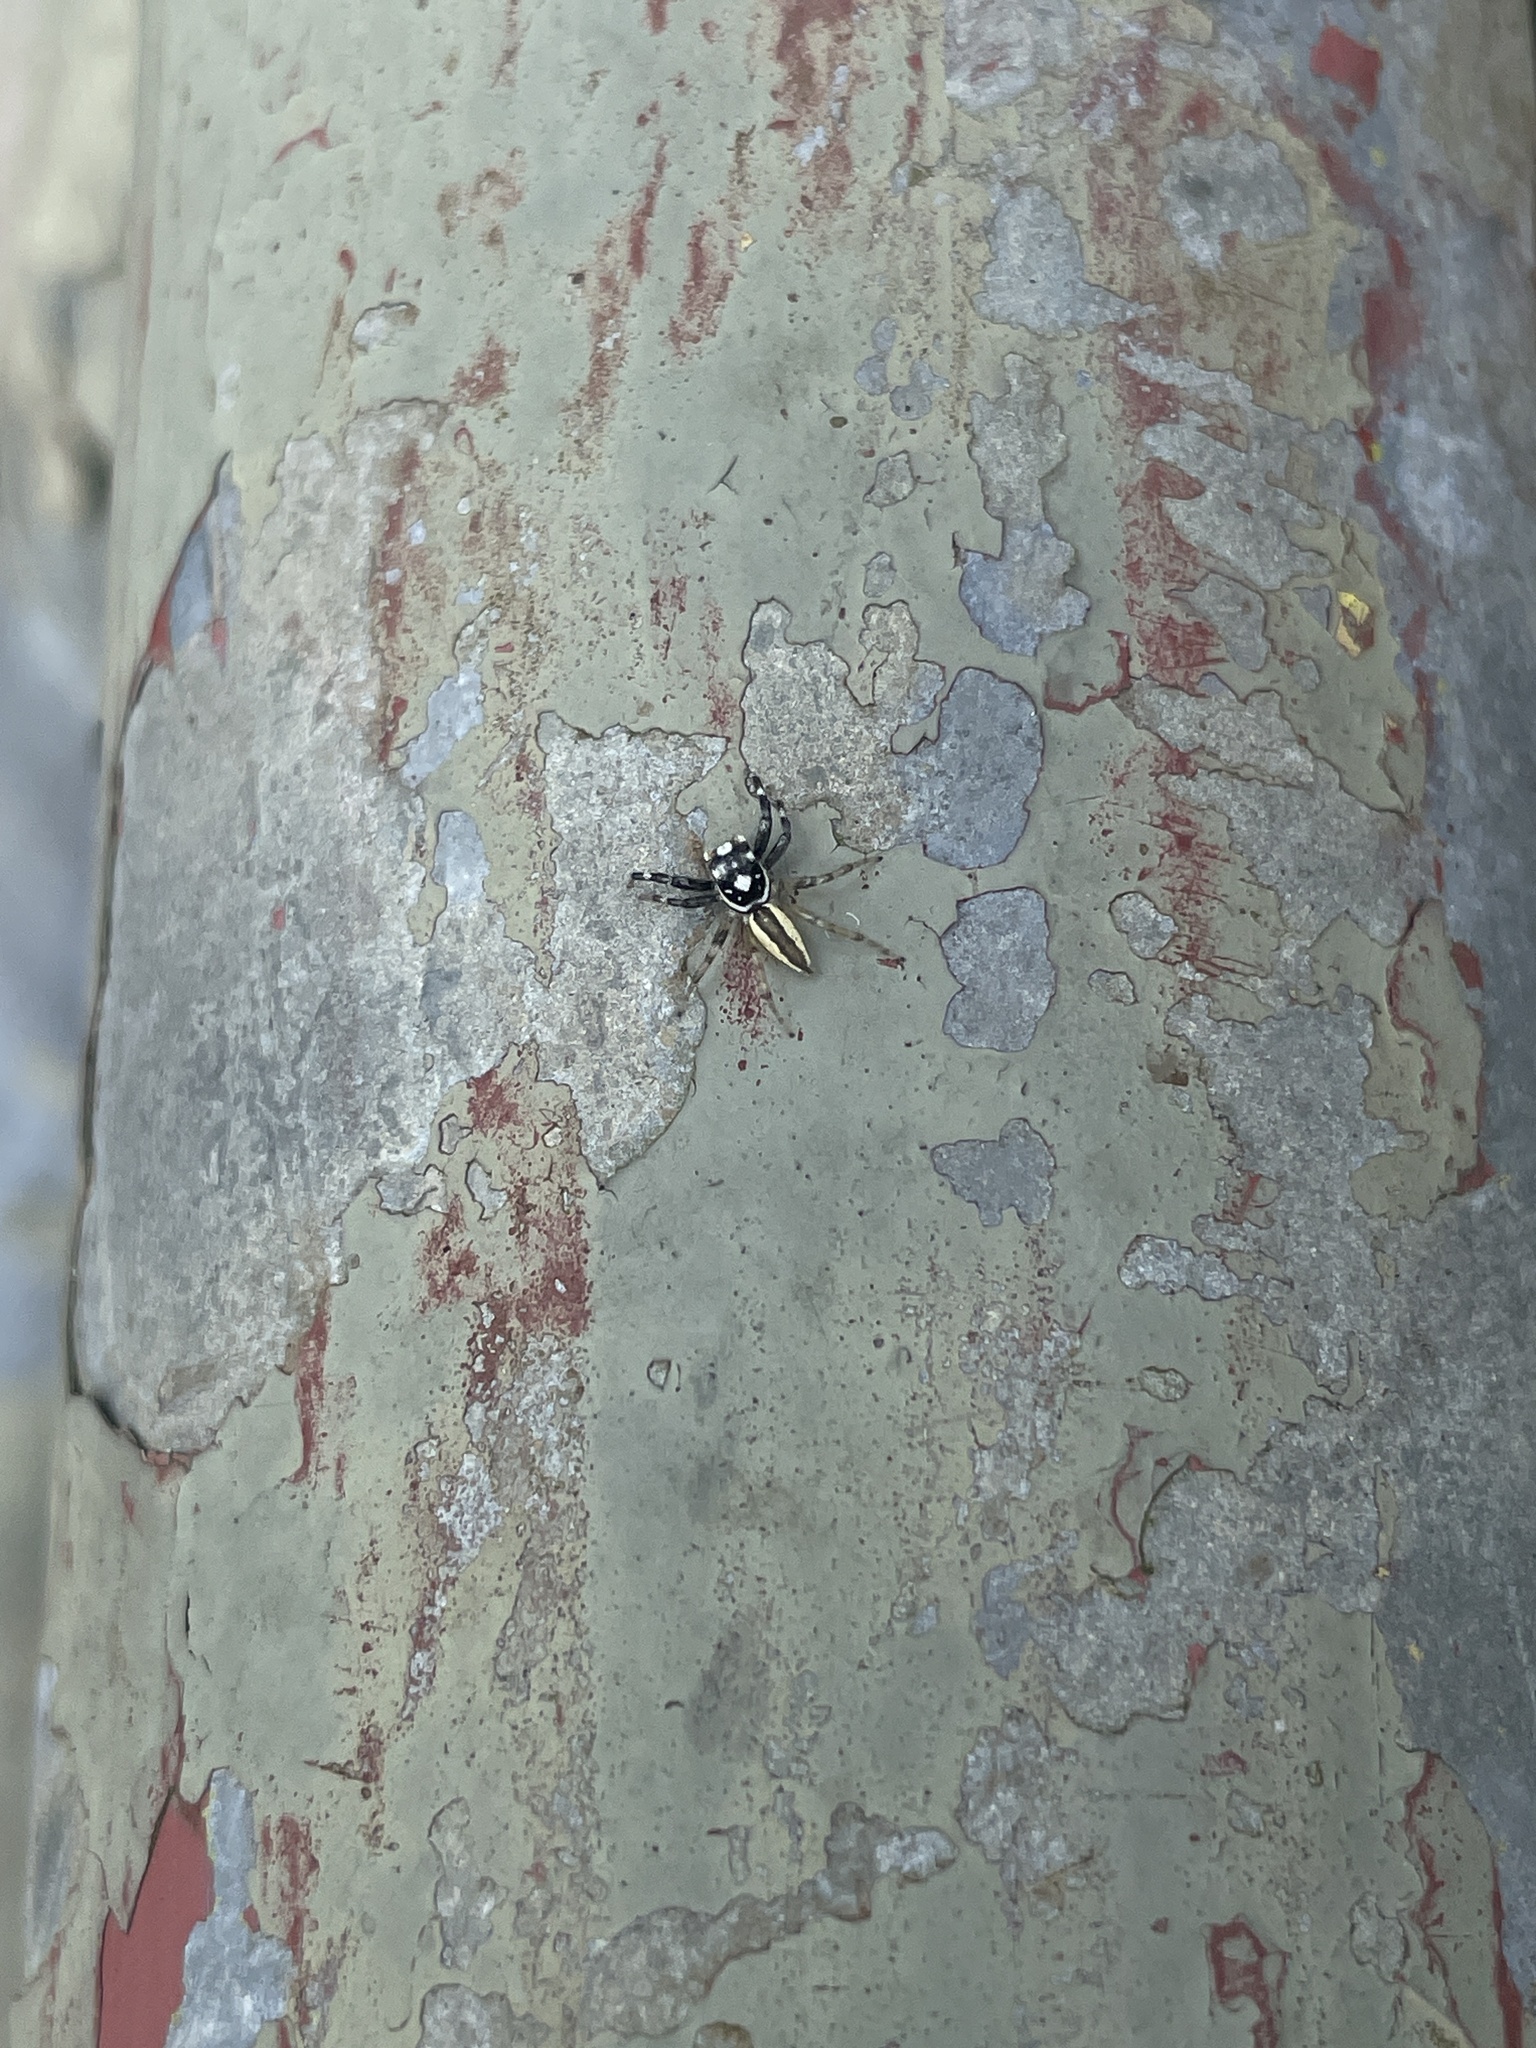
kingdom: Animalia
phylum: Arthropoda
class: Arachnida
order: Araneae
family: Salticidae
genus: Phintelloides
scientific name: Phintelloides versicolor
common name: Jumping spider
